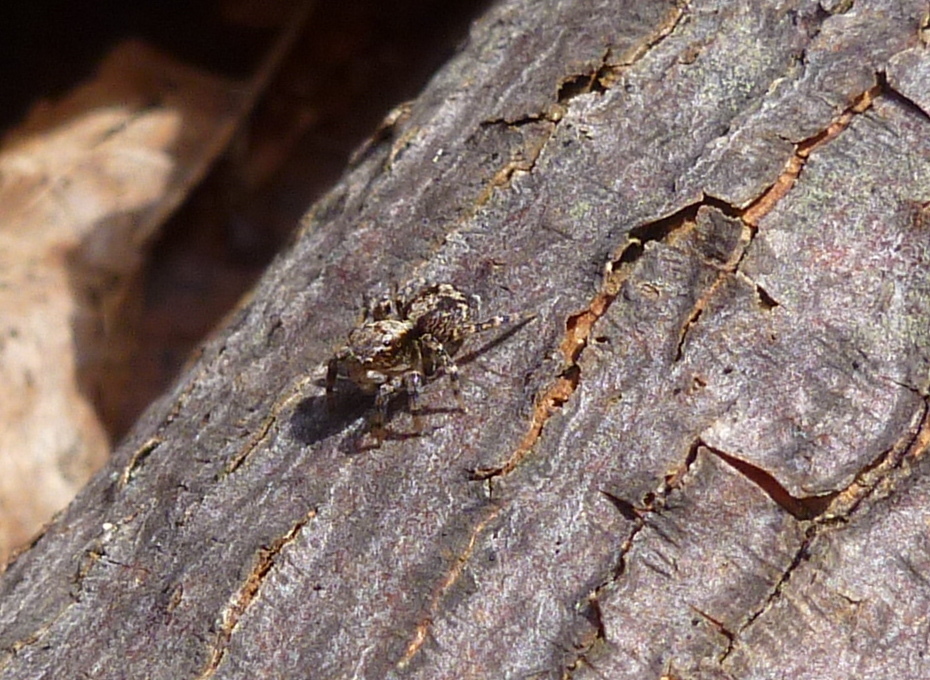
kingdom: Animalia
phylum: Arthropoda
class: Arachnida
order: Araneae
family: Salticidae
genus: Naphrys
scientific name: Naphrys pulex
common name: Flea jumping spider
